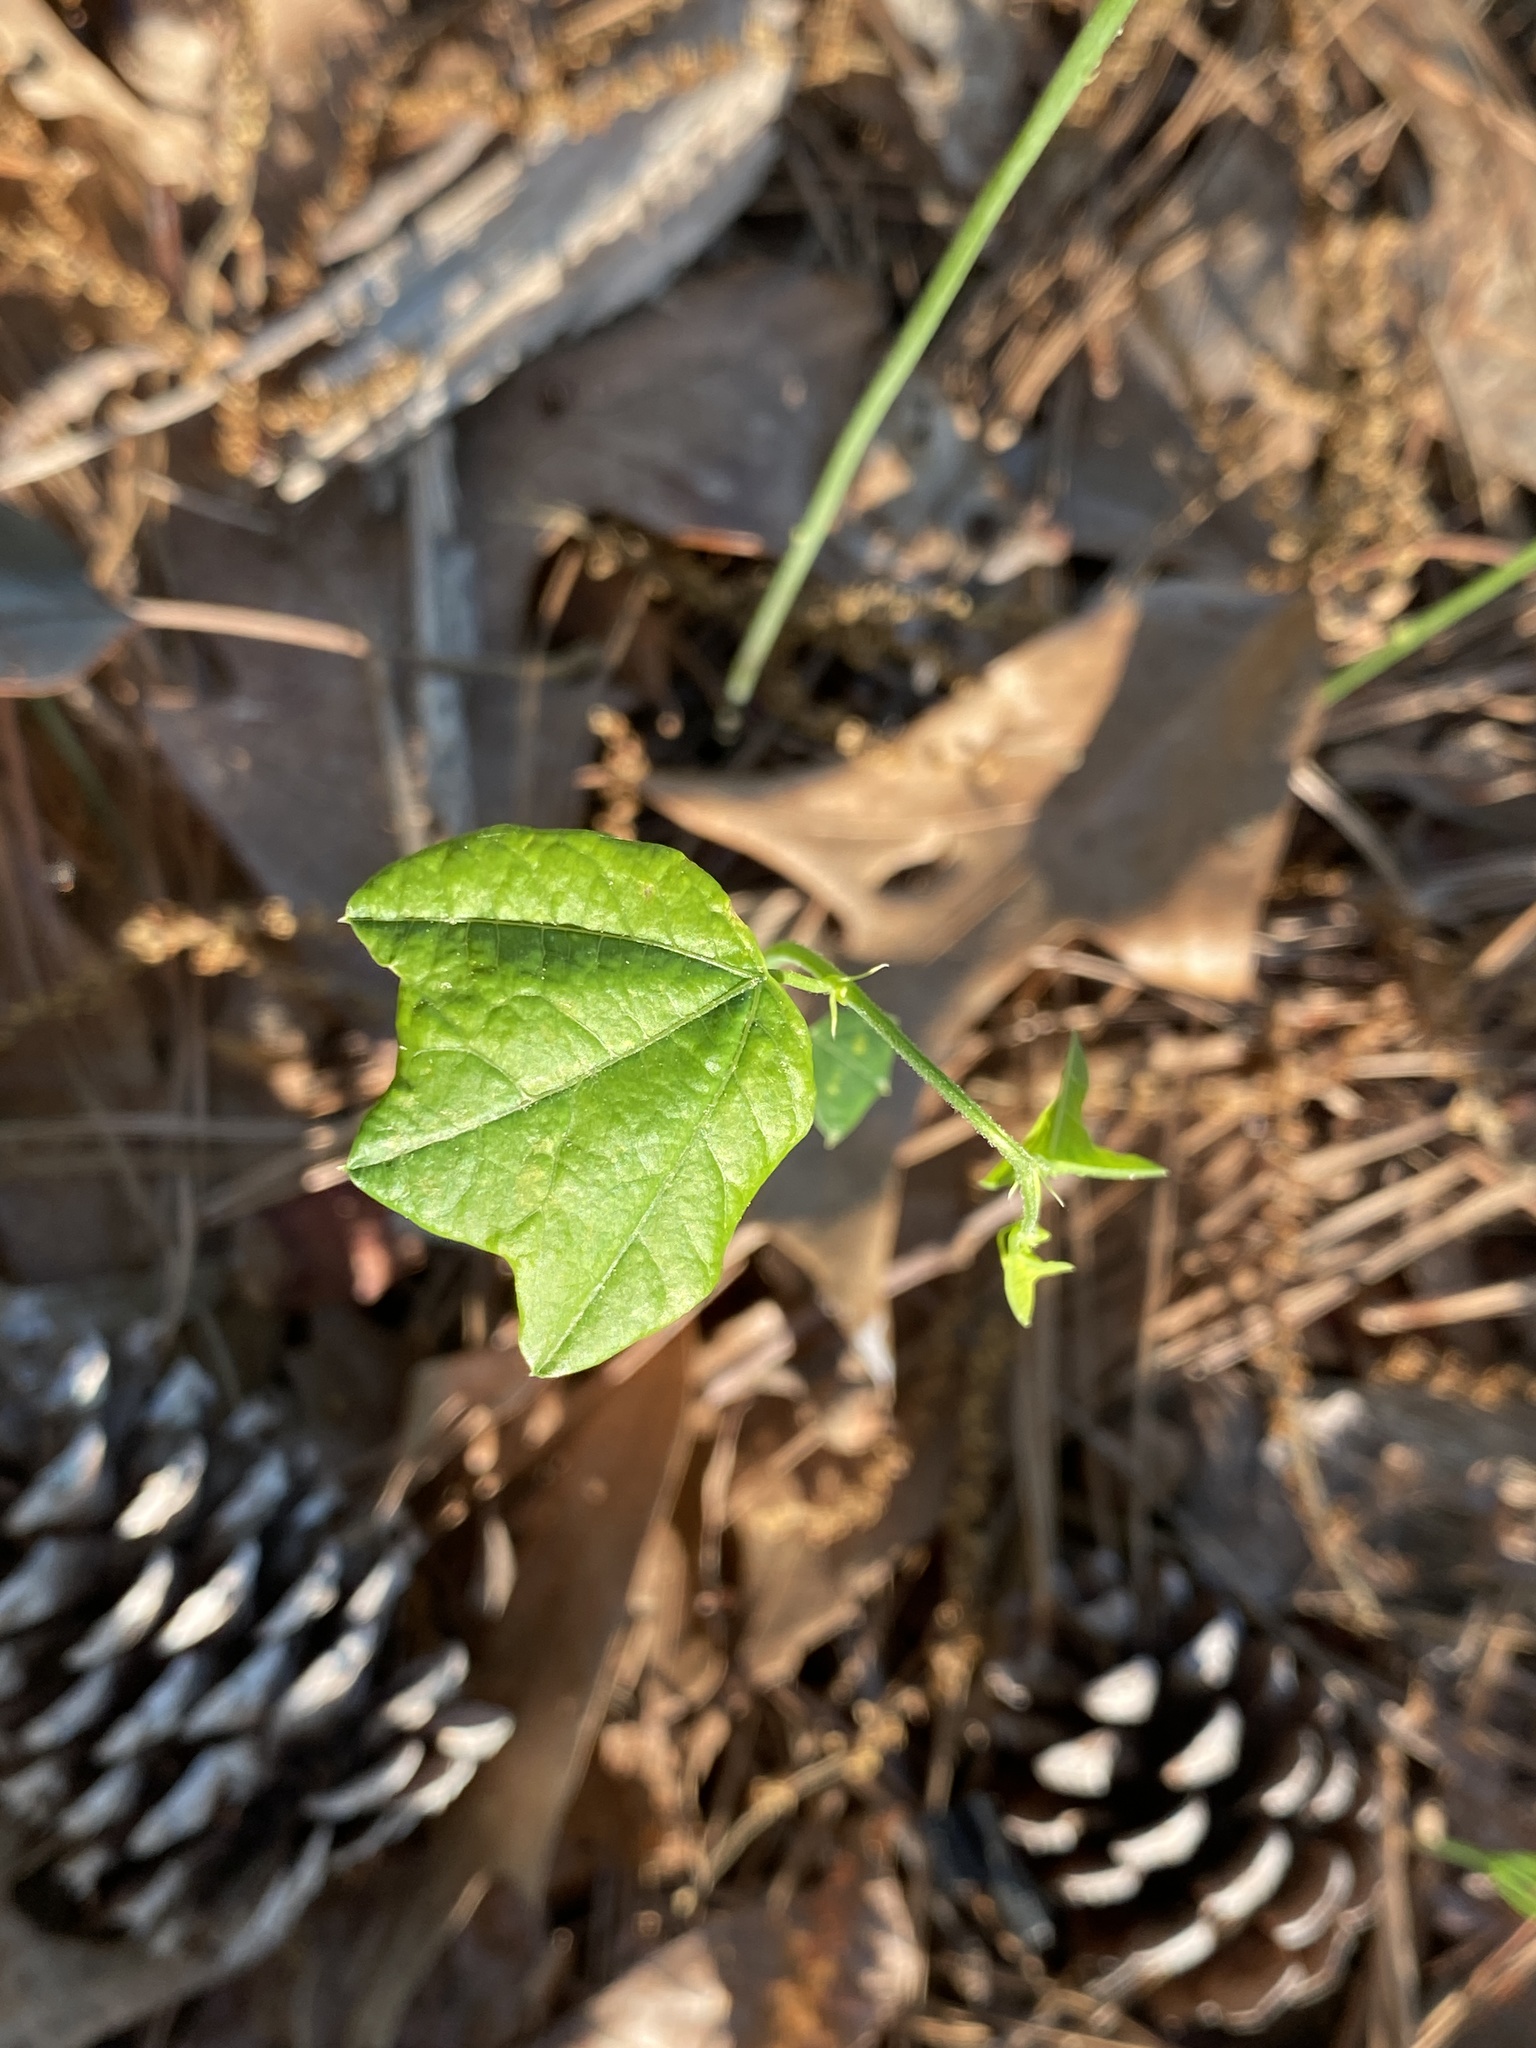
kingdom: Plantae
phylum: Tracheophyta
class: Magnoliopsida
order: Malpighiales
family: Passifloraceae
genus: Passiflora
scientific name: Passiflora lutea
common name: Yellow passionflower
